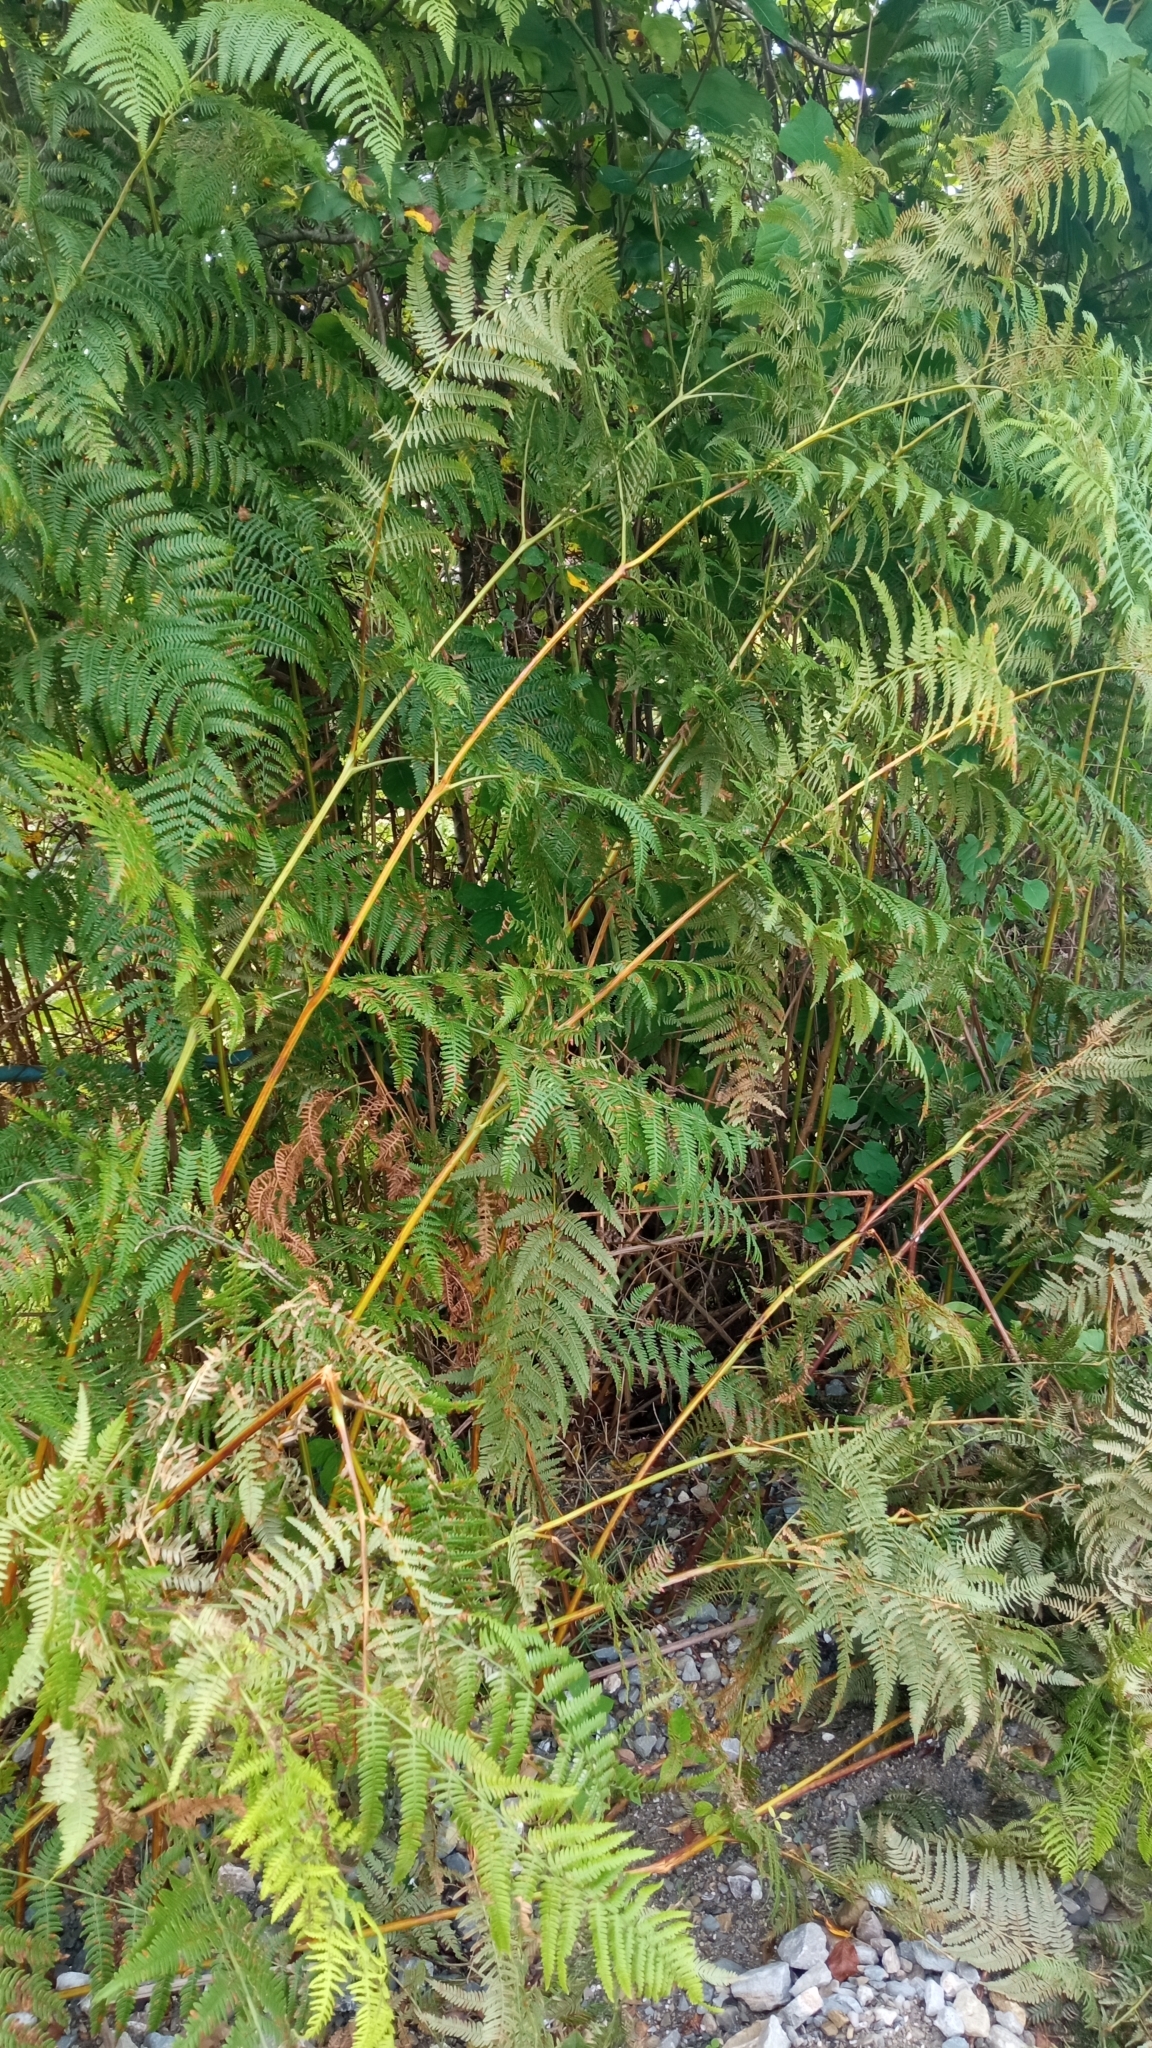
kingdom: Plantae
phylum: Tracheophyta
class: Polypodiopsida
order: Polypodiales
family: Dennstaedtiaceae
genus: Pteridium
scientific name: Pteridium tauricum
